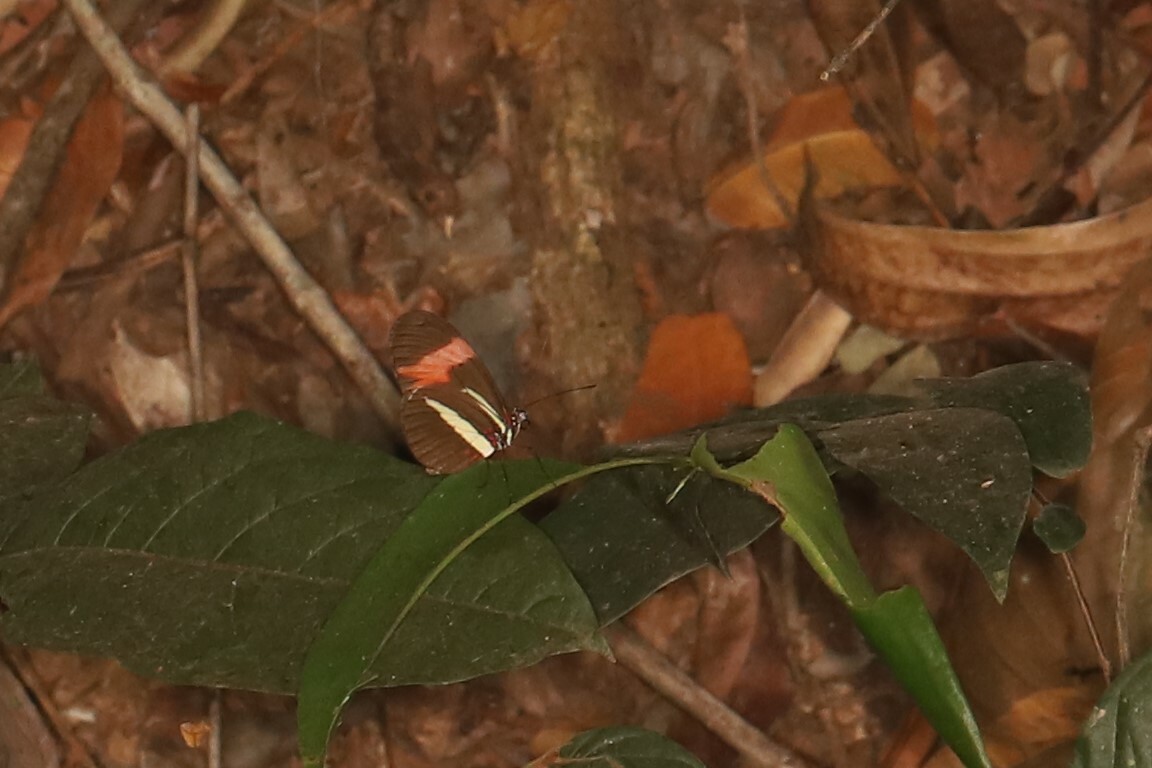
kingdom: Animalia
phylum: Arthropoda
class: Insecta
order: Lepidoptera
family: Nymphalidae
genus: Heliconius
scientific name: Heliconius erato
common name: Common patch longwing
